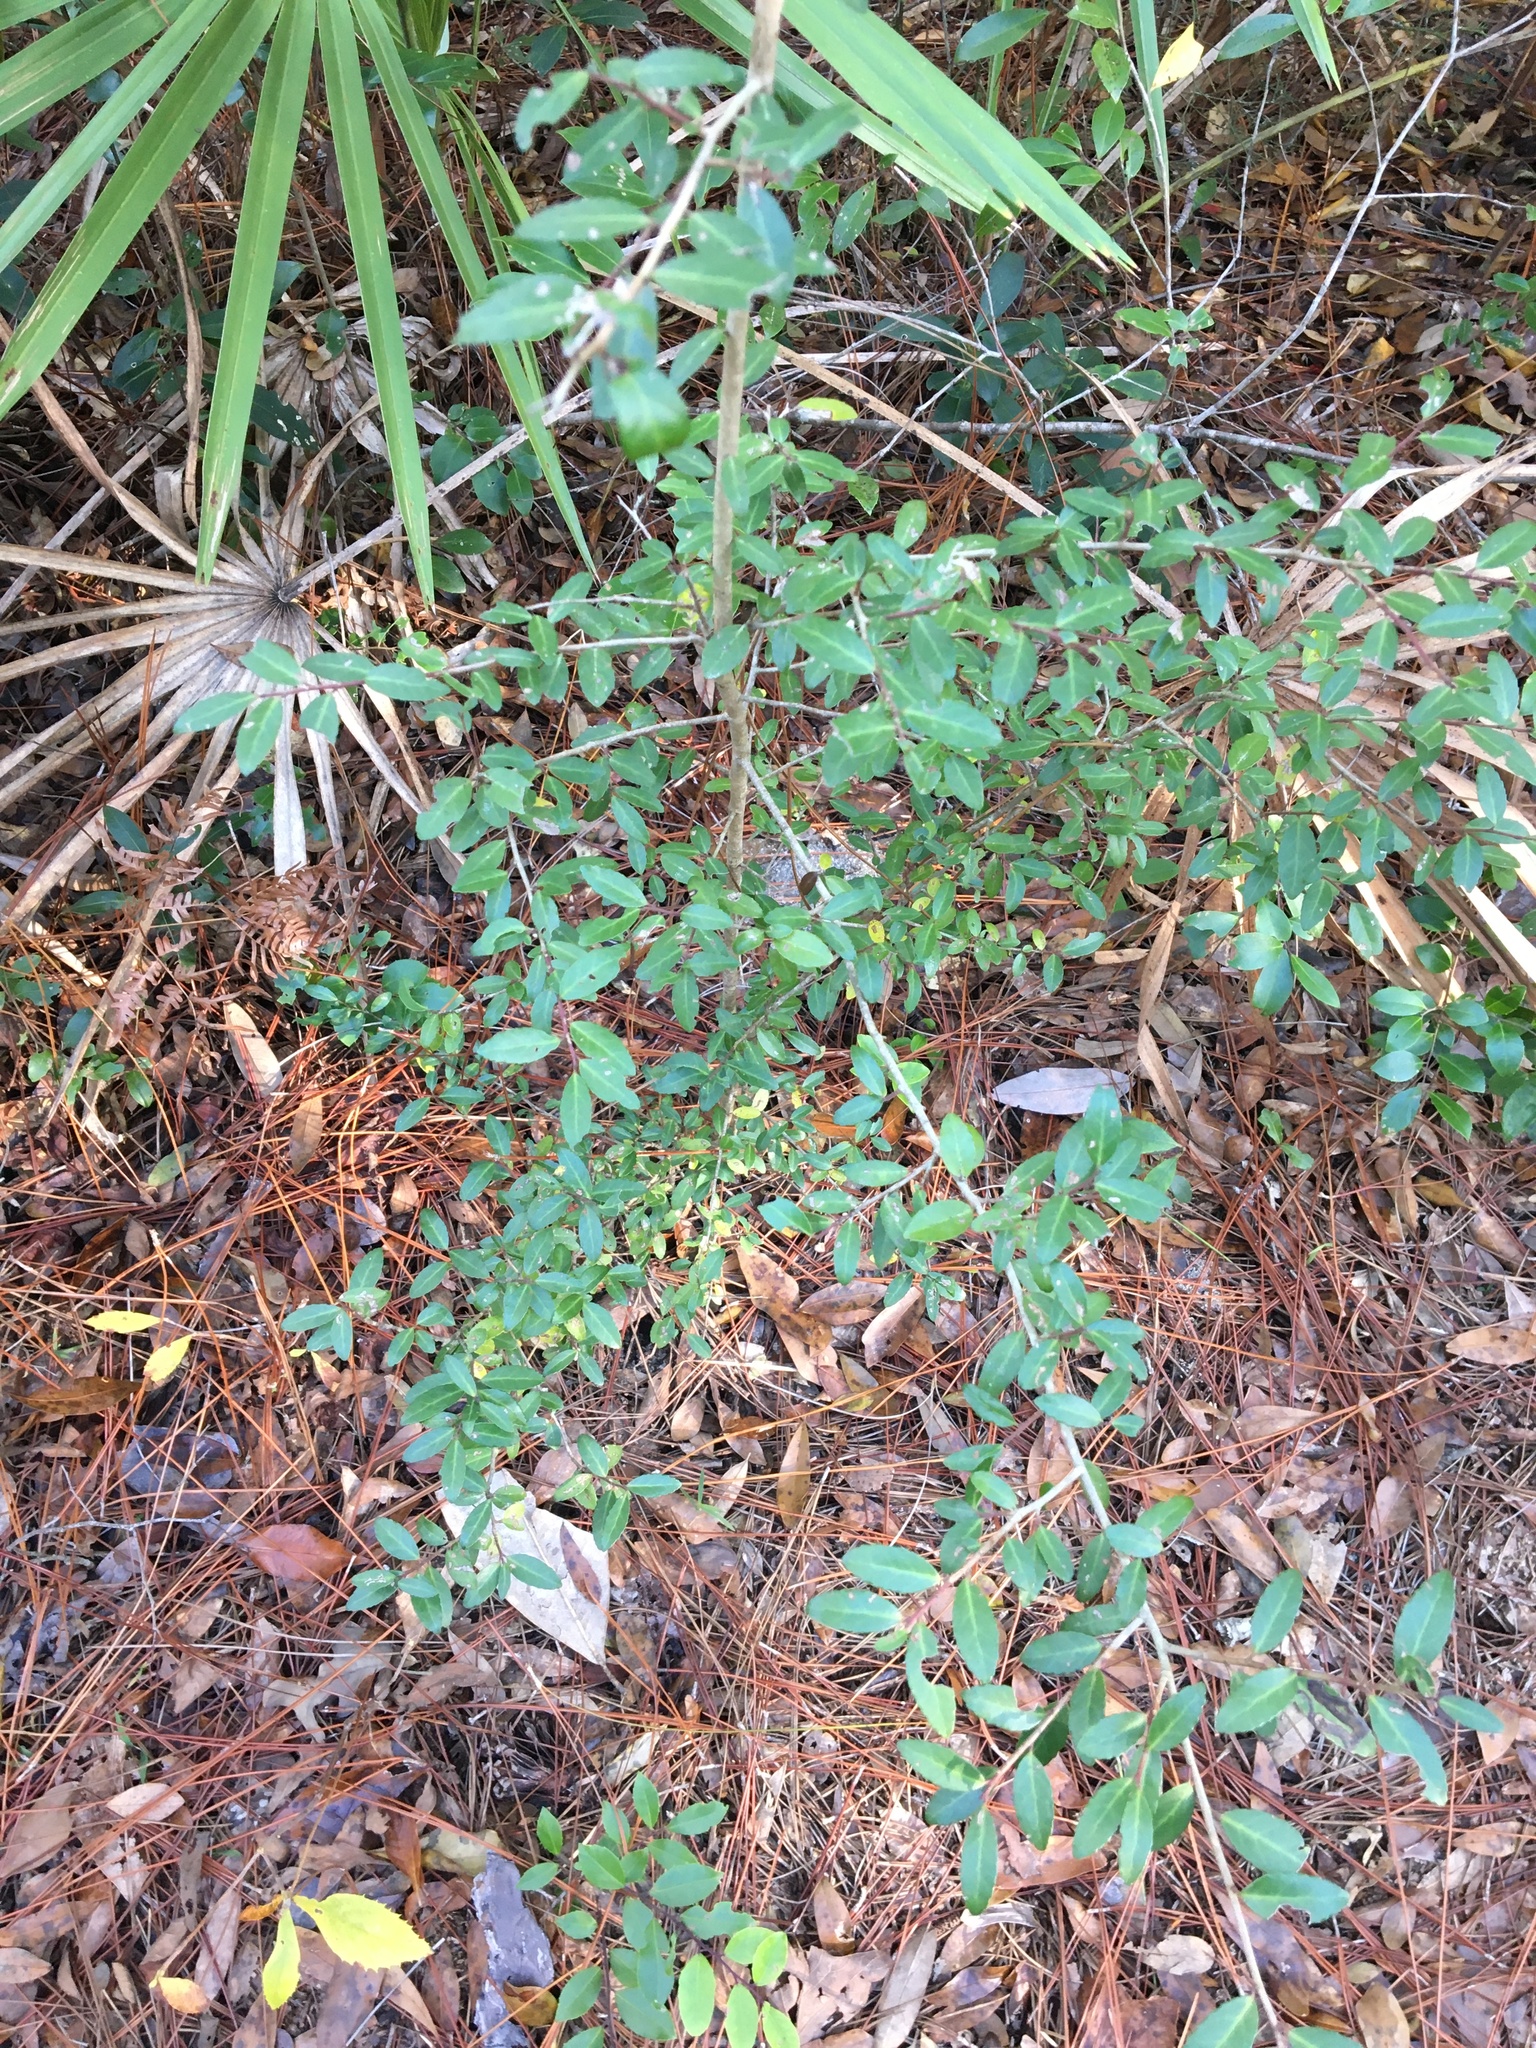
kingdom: Plantae
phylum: Tracheophyta
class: Magnoliopsida
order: Aquifoliales
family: Aquifoliaceae
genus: Ilex
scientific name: Ilex vomitoria
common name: Yaupon holly
